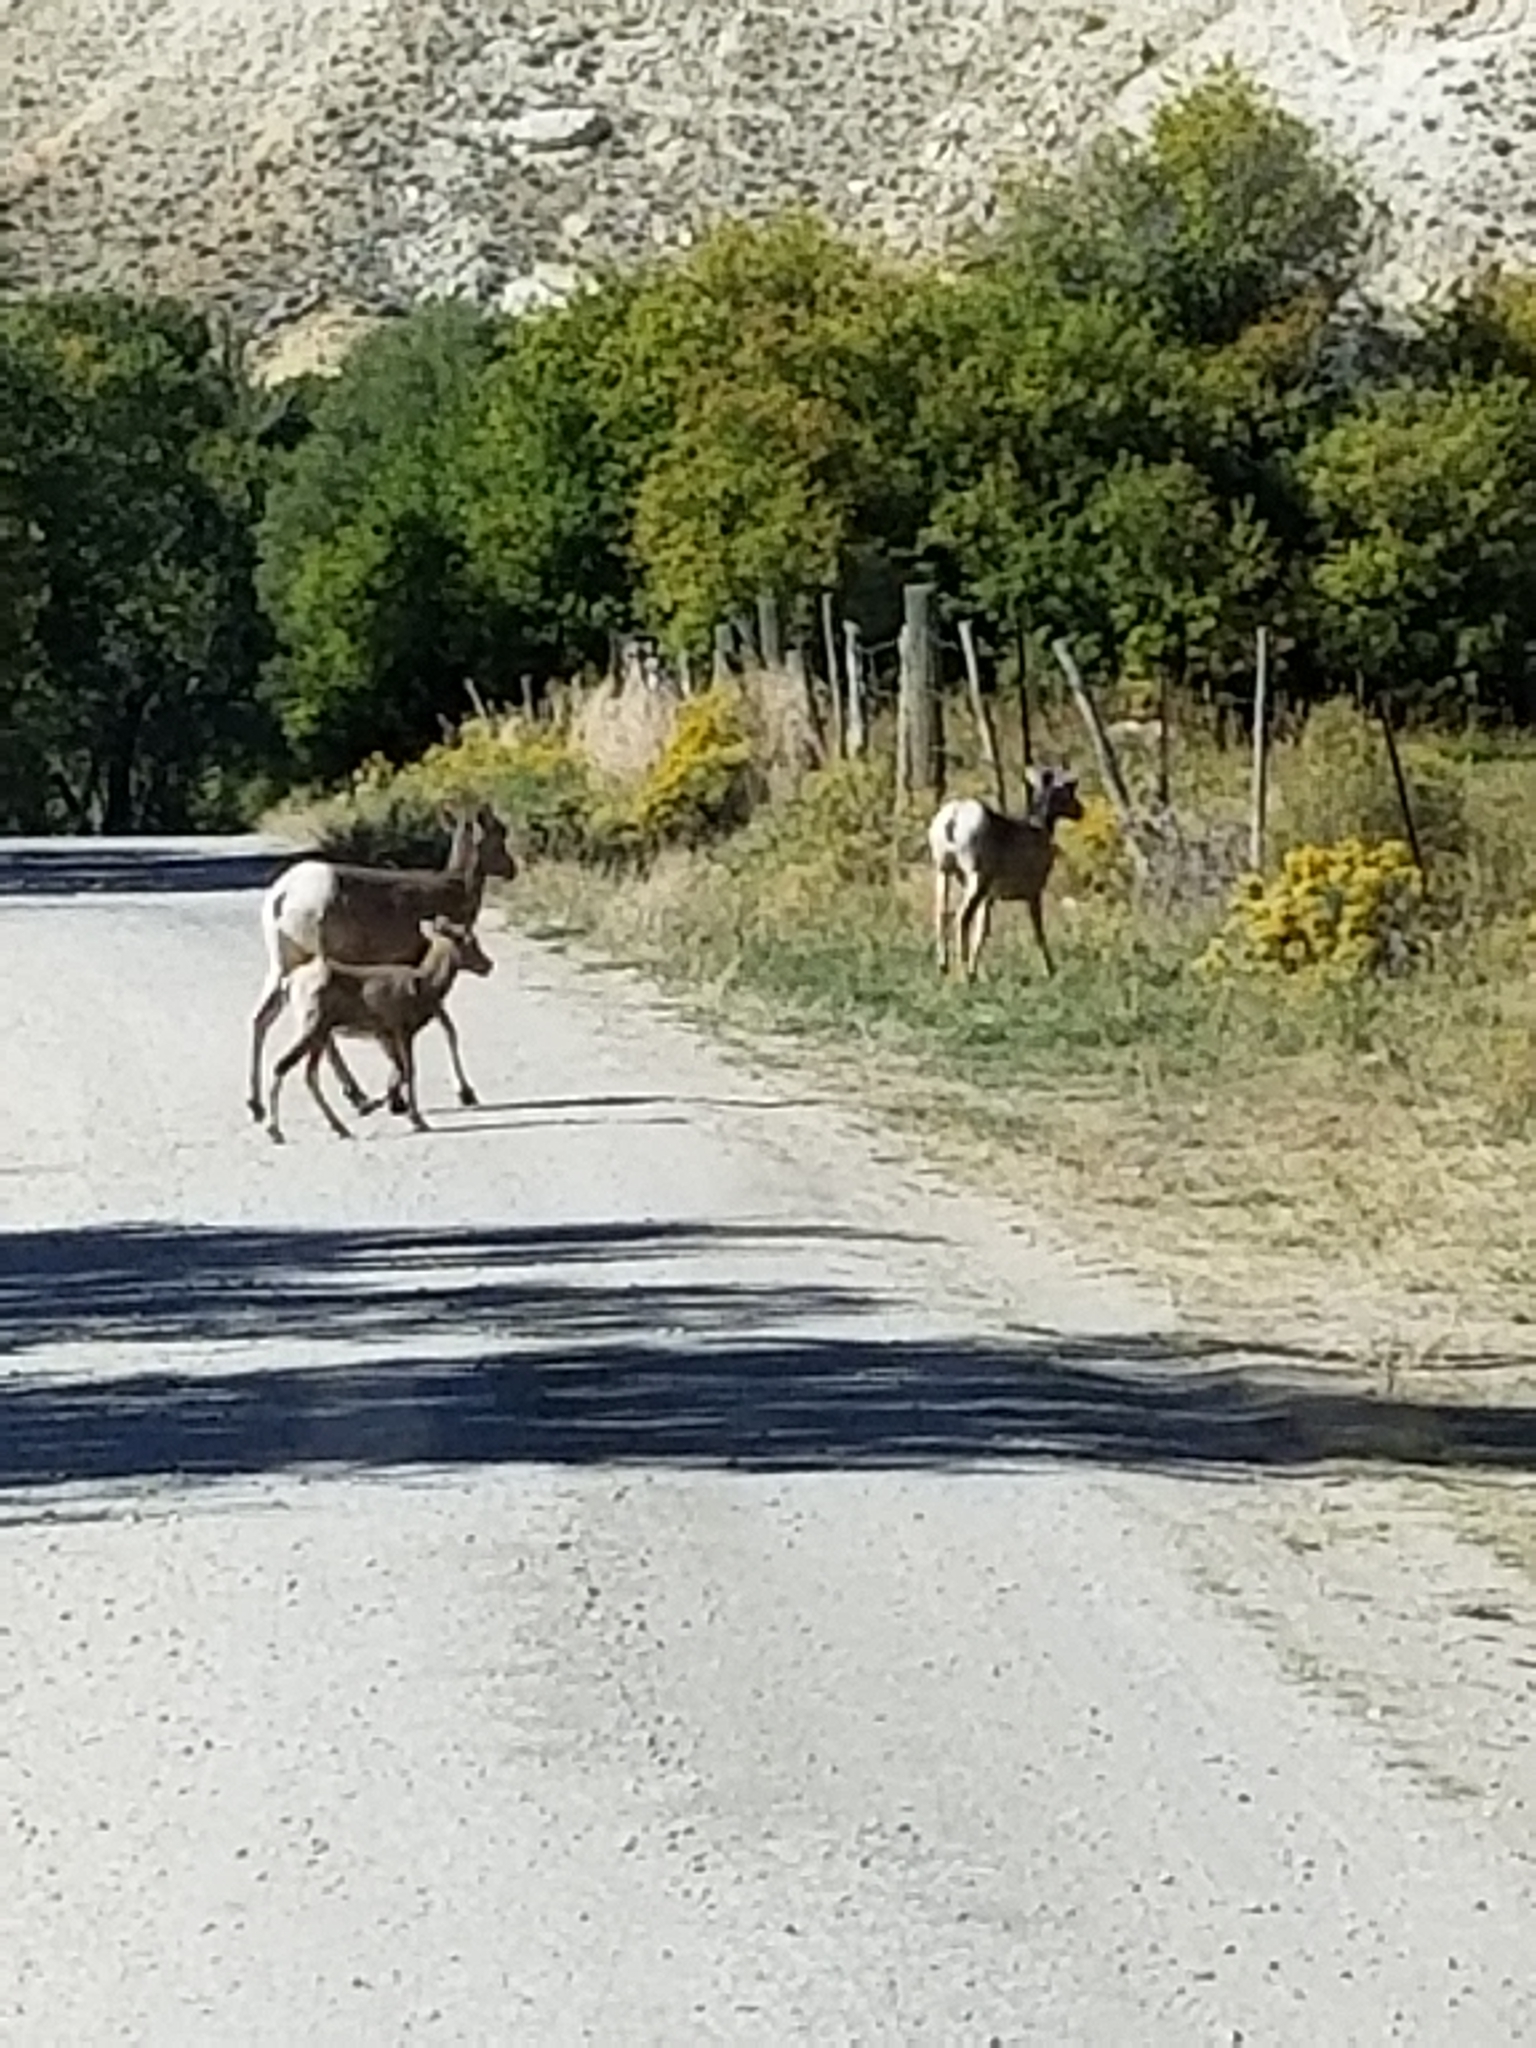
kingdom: Animalia
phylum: Chordata
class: Mammalia
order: Artiodactyla
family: Bovidae
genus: Ovis
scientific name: Ovis canadensis
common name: Bighorn sheep
